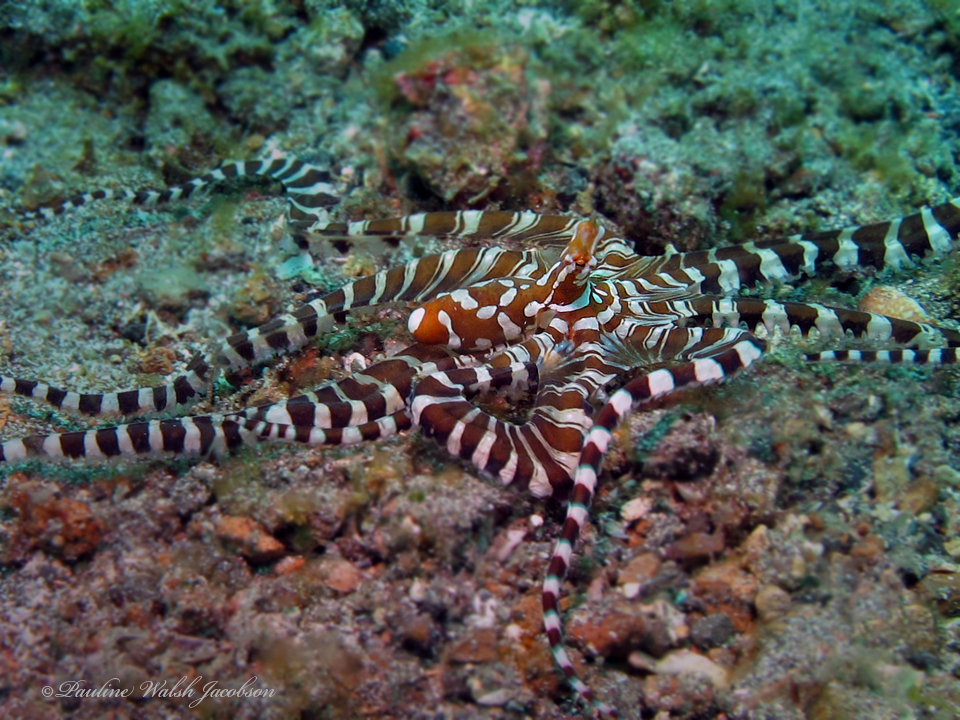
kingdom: Animalia
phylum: Mollusca
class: Cephalopoda
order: Octopoda
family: Octopodidae
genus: Wunderpus
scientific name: Wunderpus photogenicus
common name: Wunderpus
